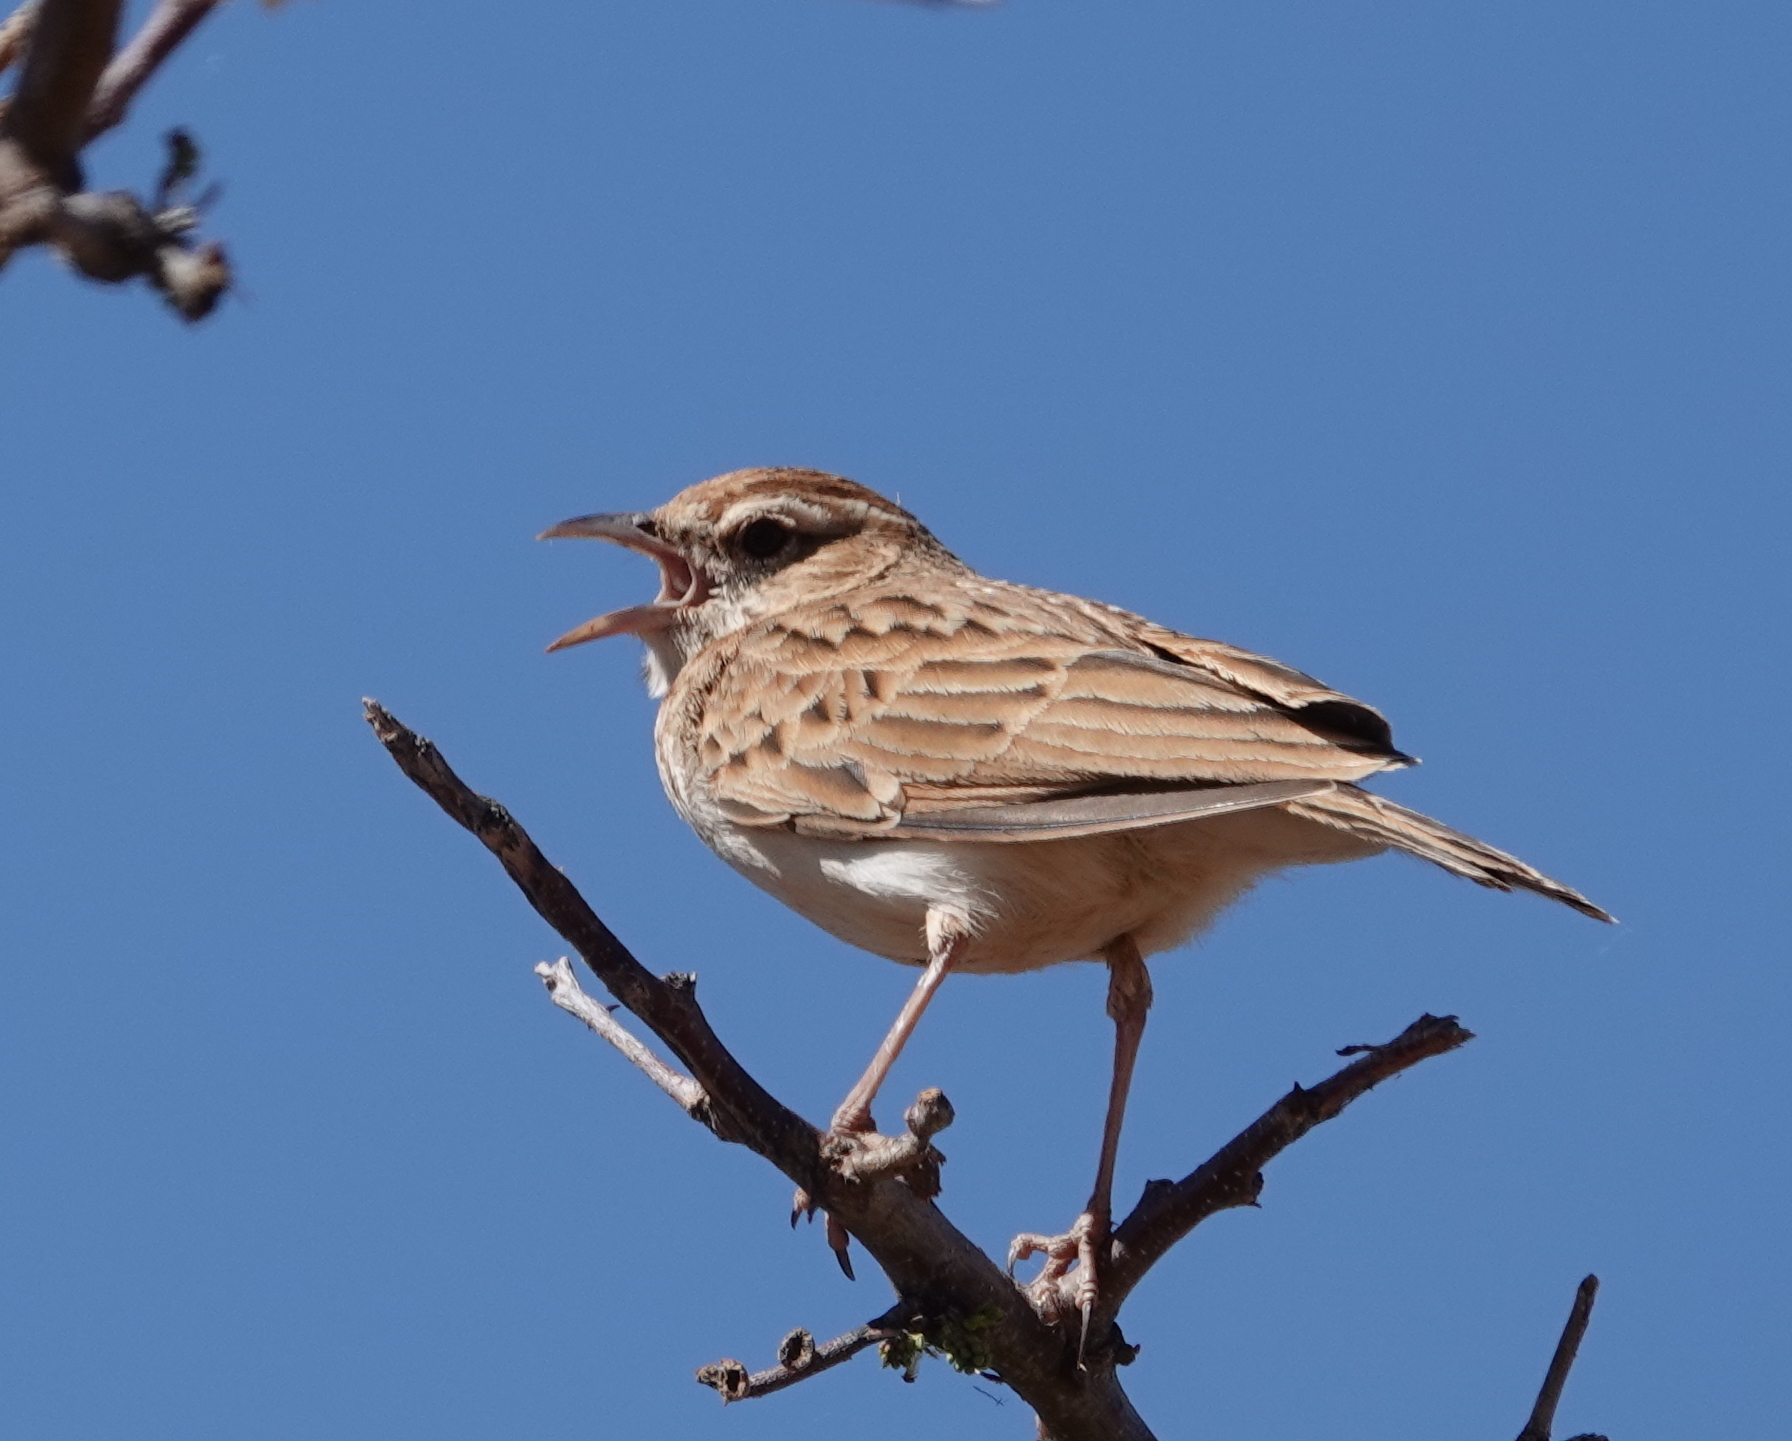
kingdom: Animalia
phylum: Chordata
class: Aves
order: Passeriformes
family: Alaudidae
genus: Calendulauda
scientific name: Calendulauda africanoides
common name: Fawn-colored lark
